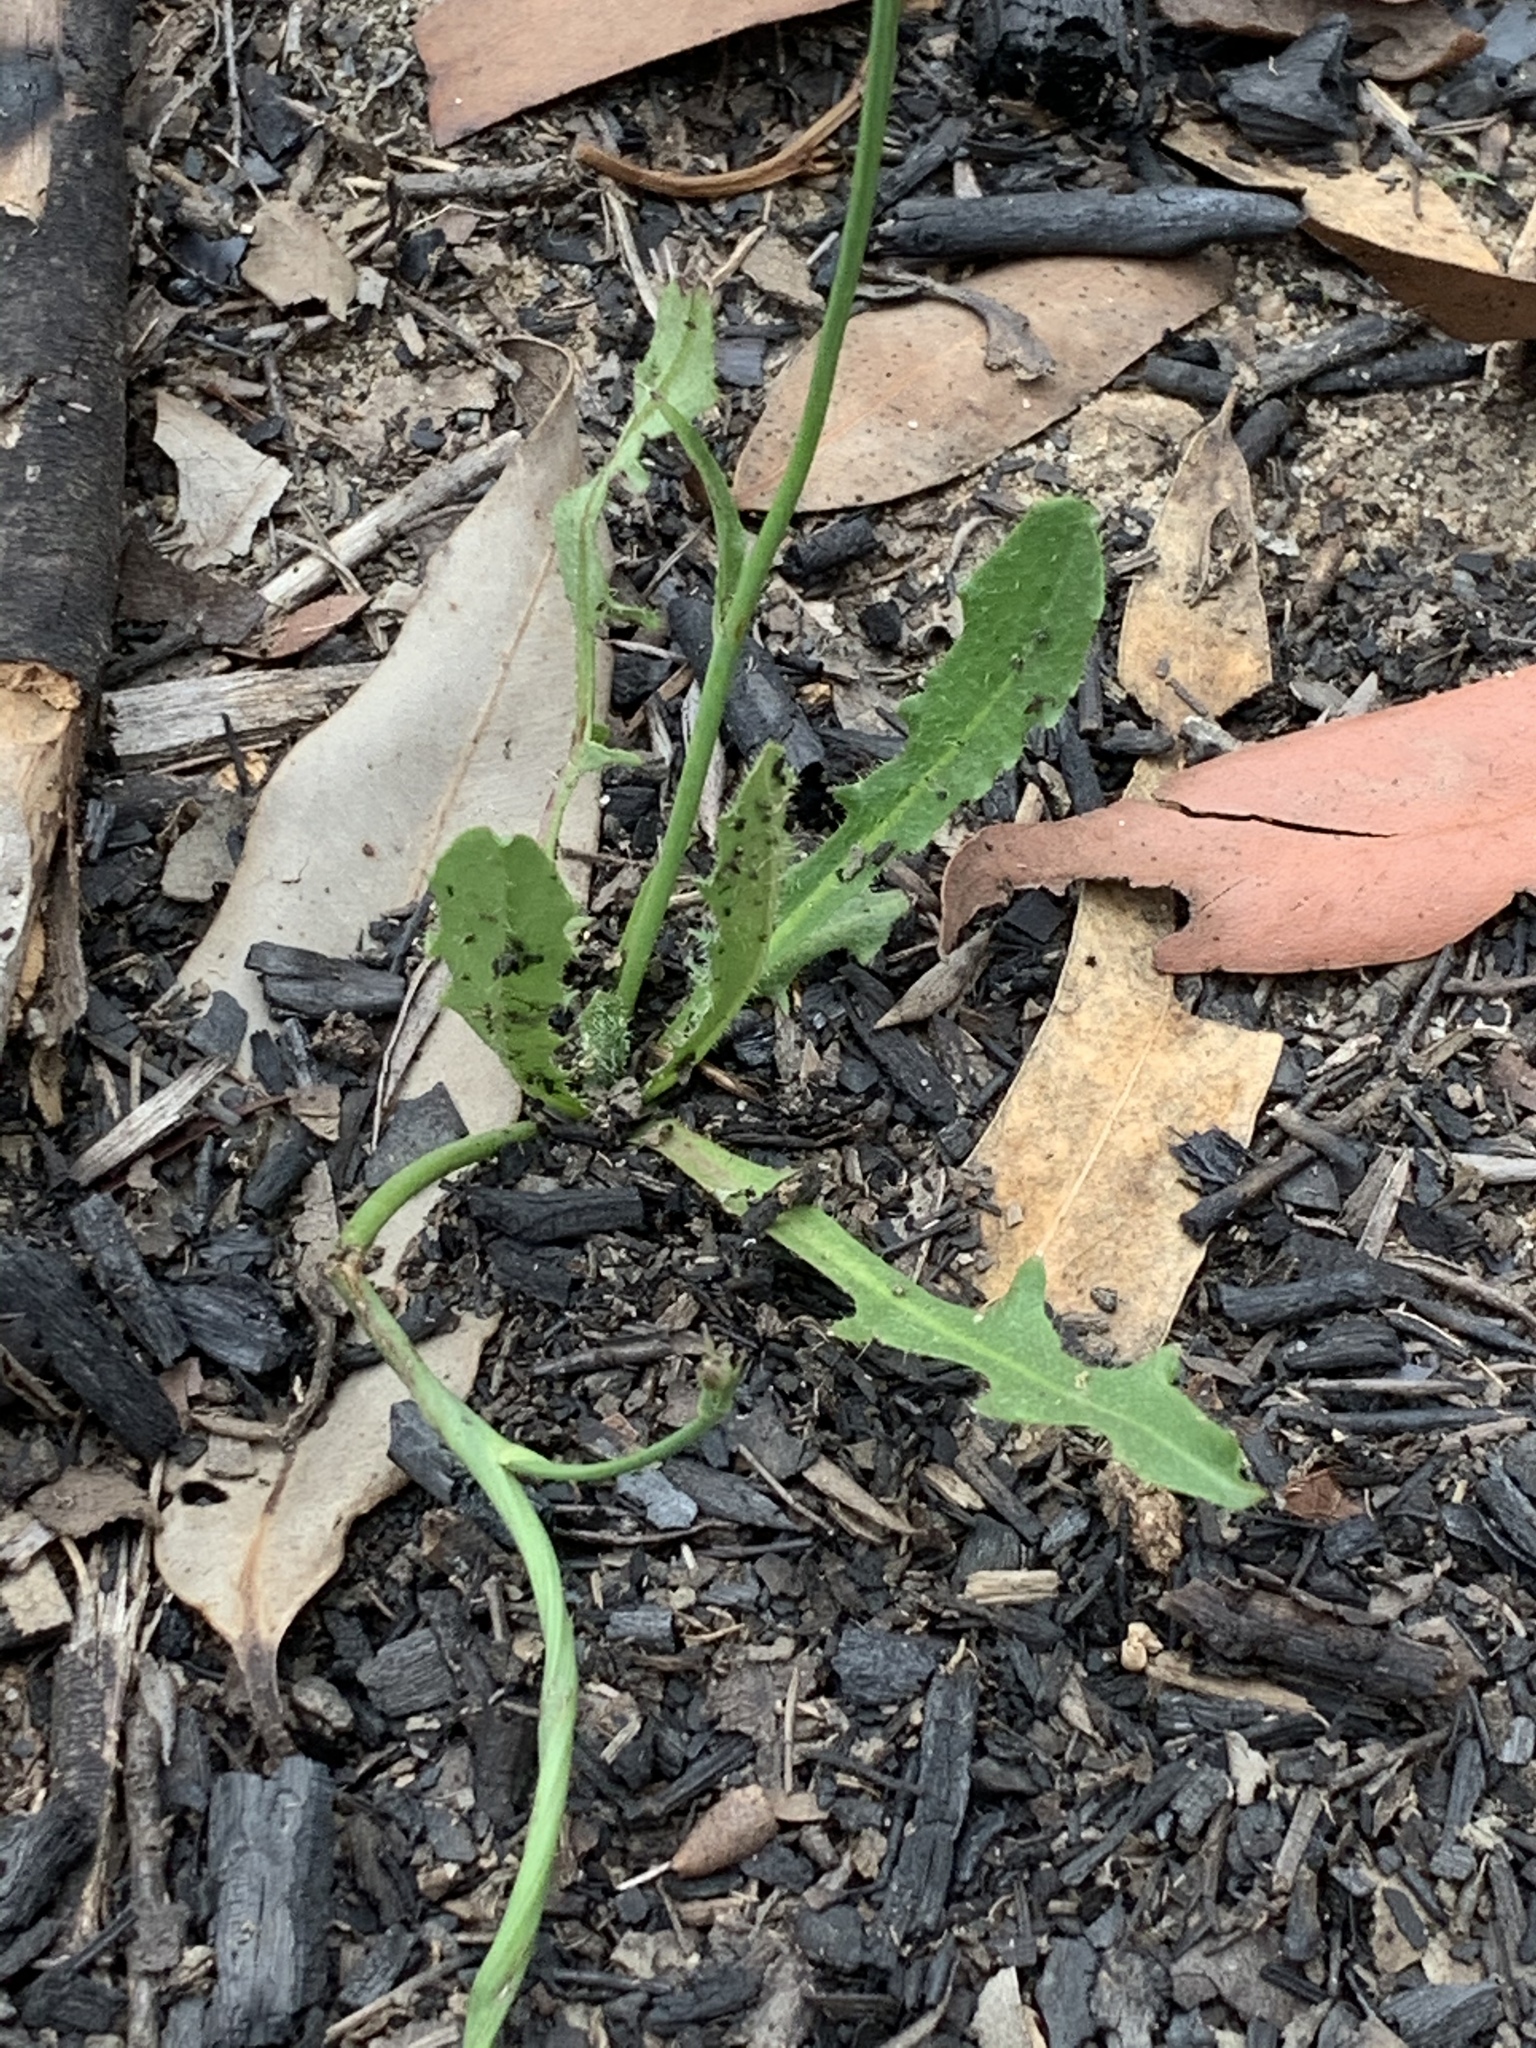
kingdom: Plantae
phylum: Tracheophyta
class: Magnoliopsida
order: Asterales
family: Asteraceae
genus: Hypochaeris
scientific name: Hypochaeris radicata
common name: Flatweed
